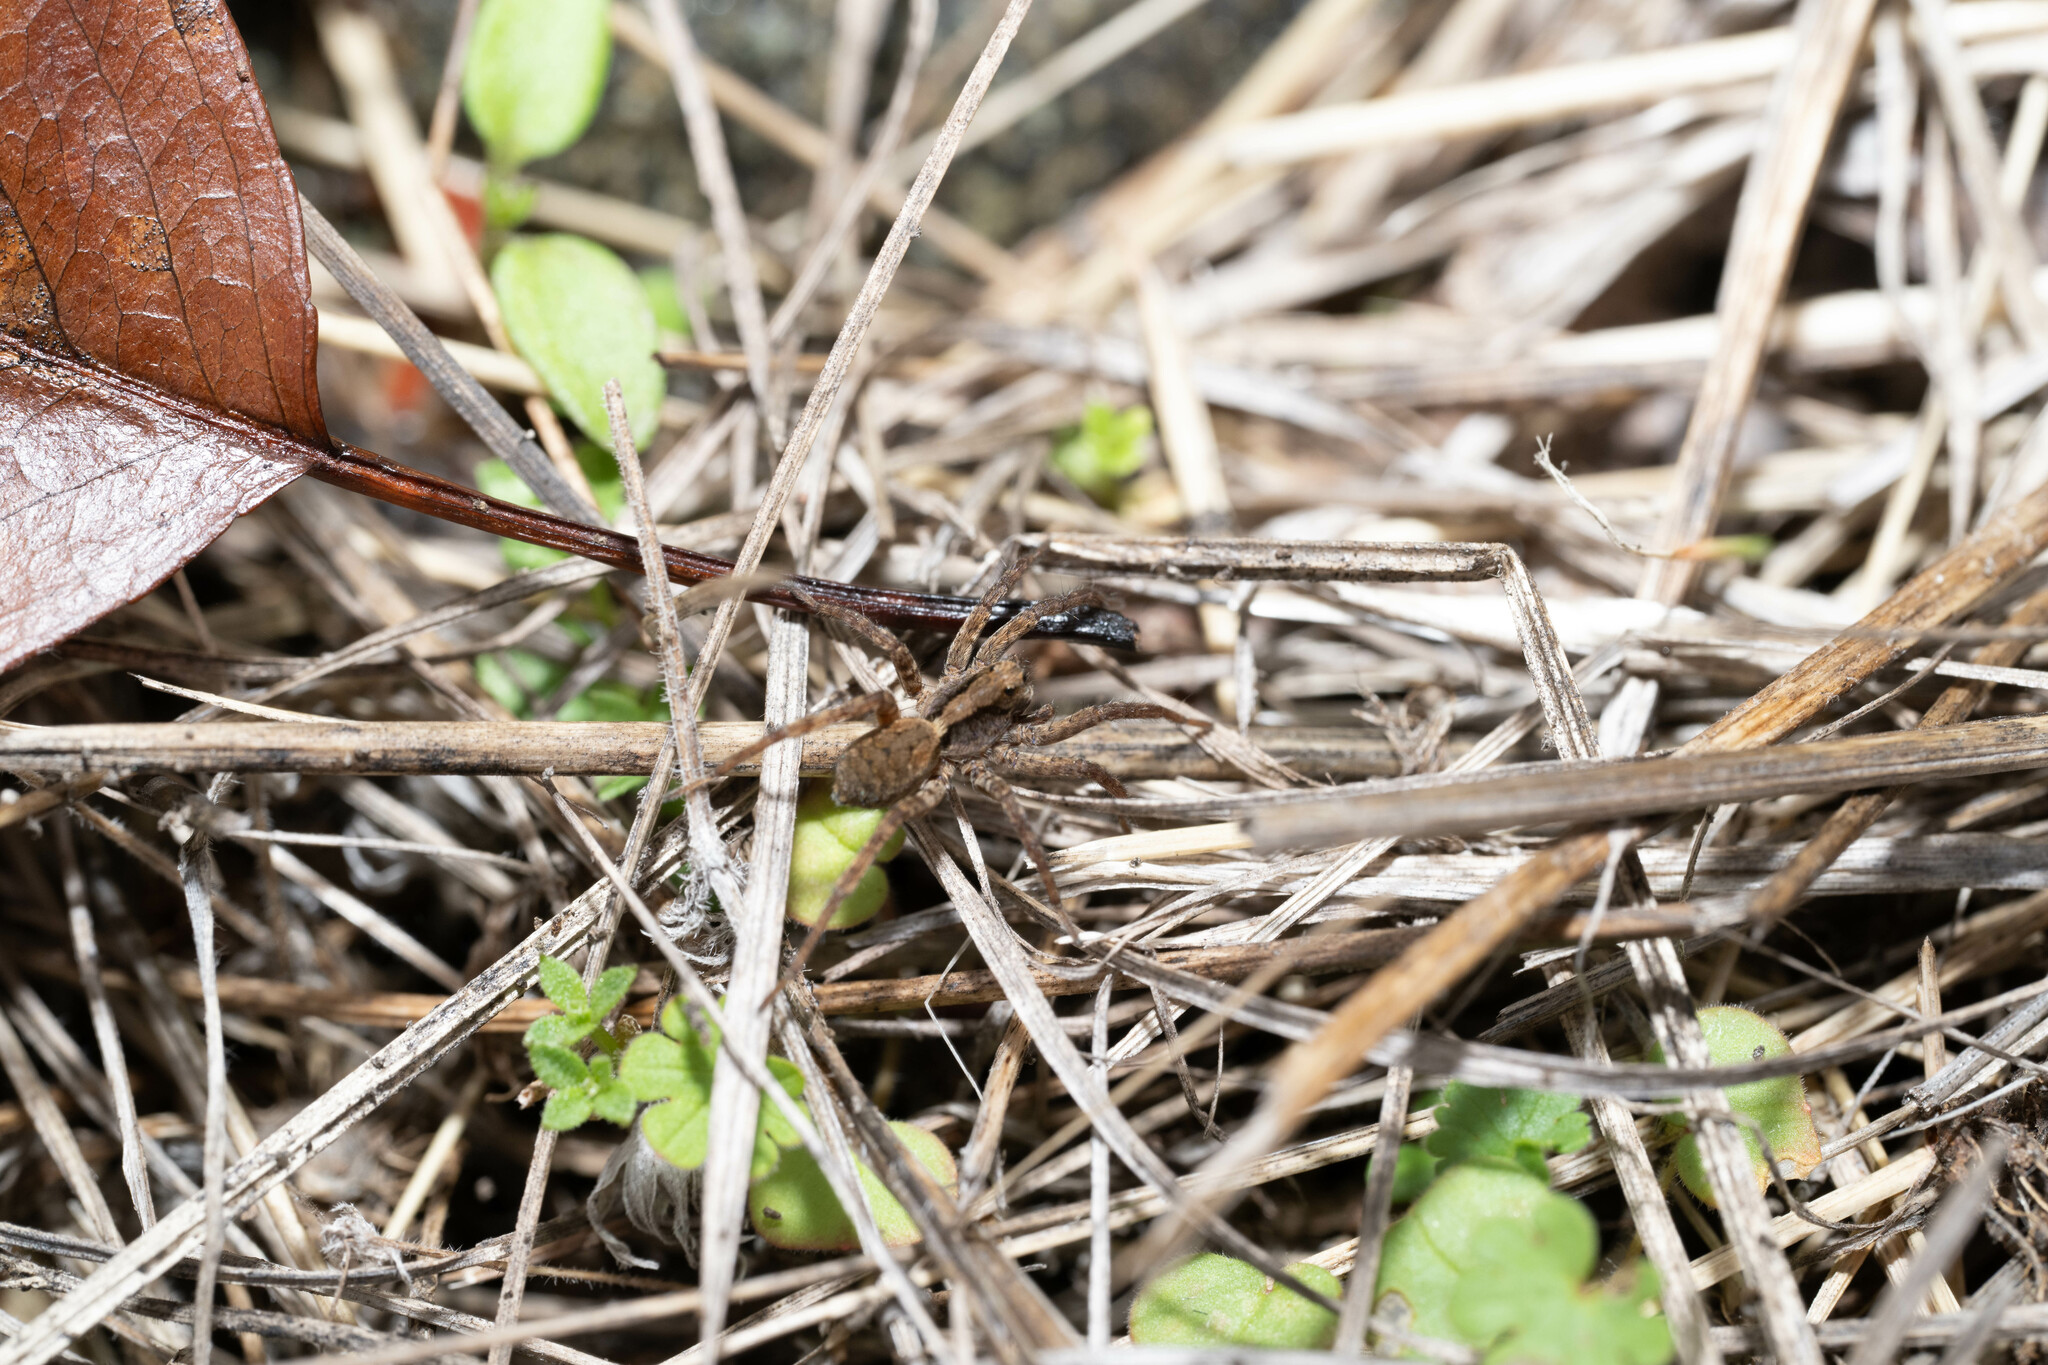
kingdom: Animalia
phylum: Arthropoda
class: Arachnida
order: Araneae
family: Lycosidae
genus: Alopecosa
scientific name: Alopecosa kochi
